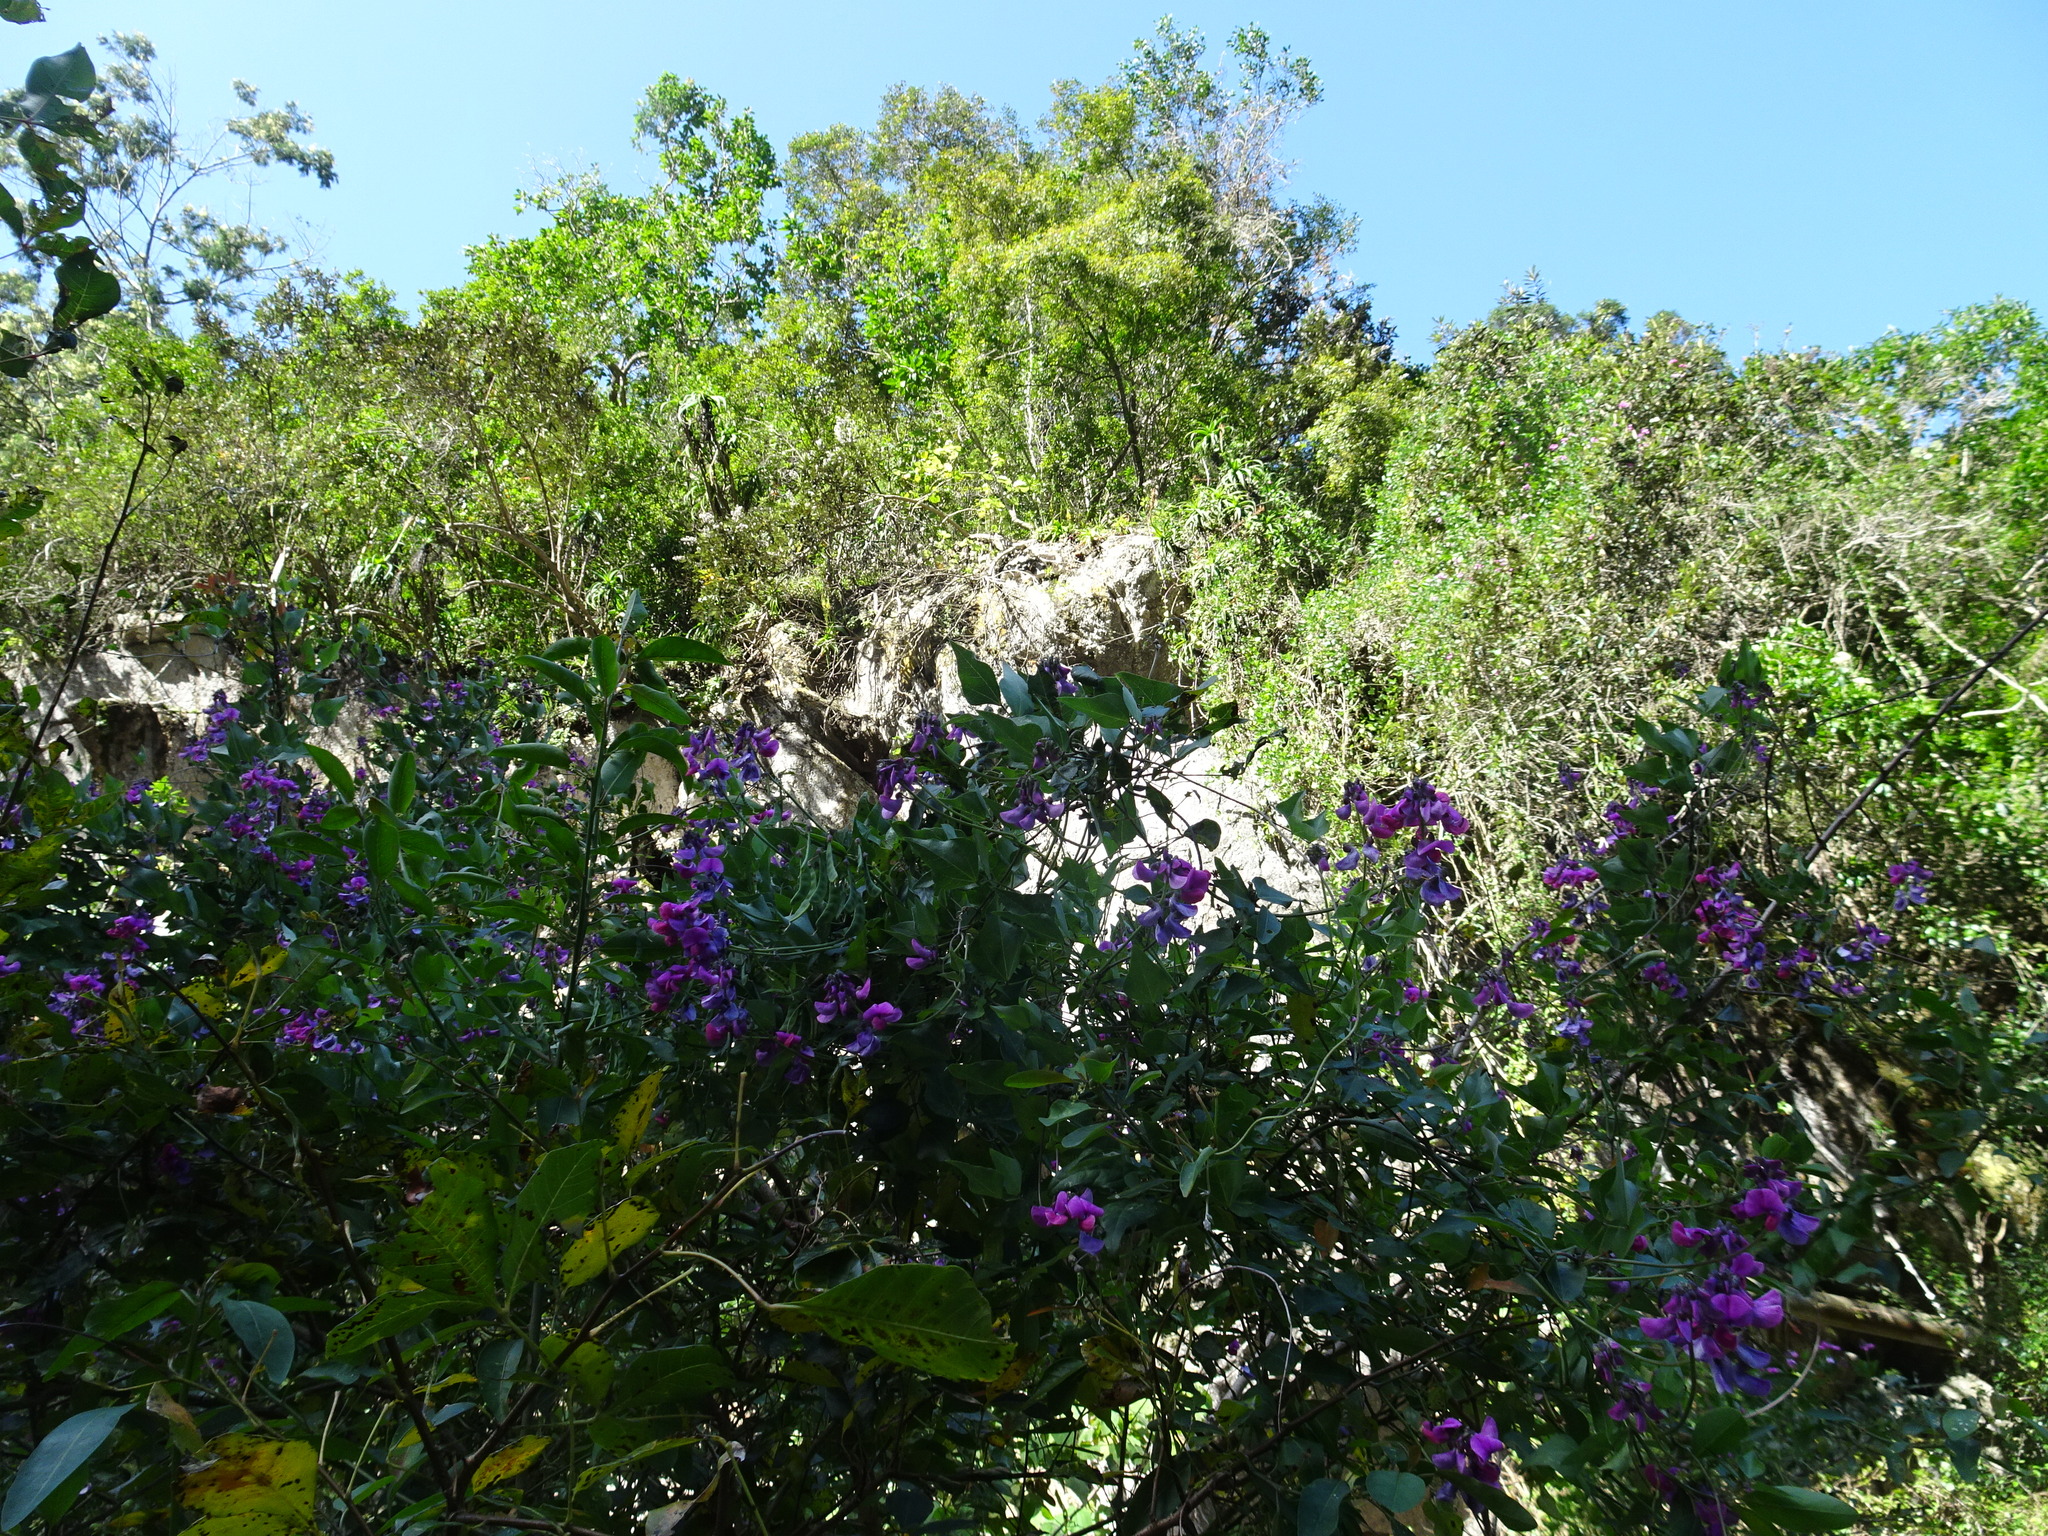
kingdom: Plantae
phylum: Tracheophyta
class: Magnoliopsida
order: Fabales
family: Fabaceae
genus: Dipogon
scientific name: Dipogon lignosus
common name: Okie bean
